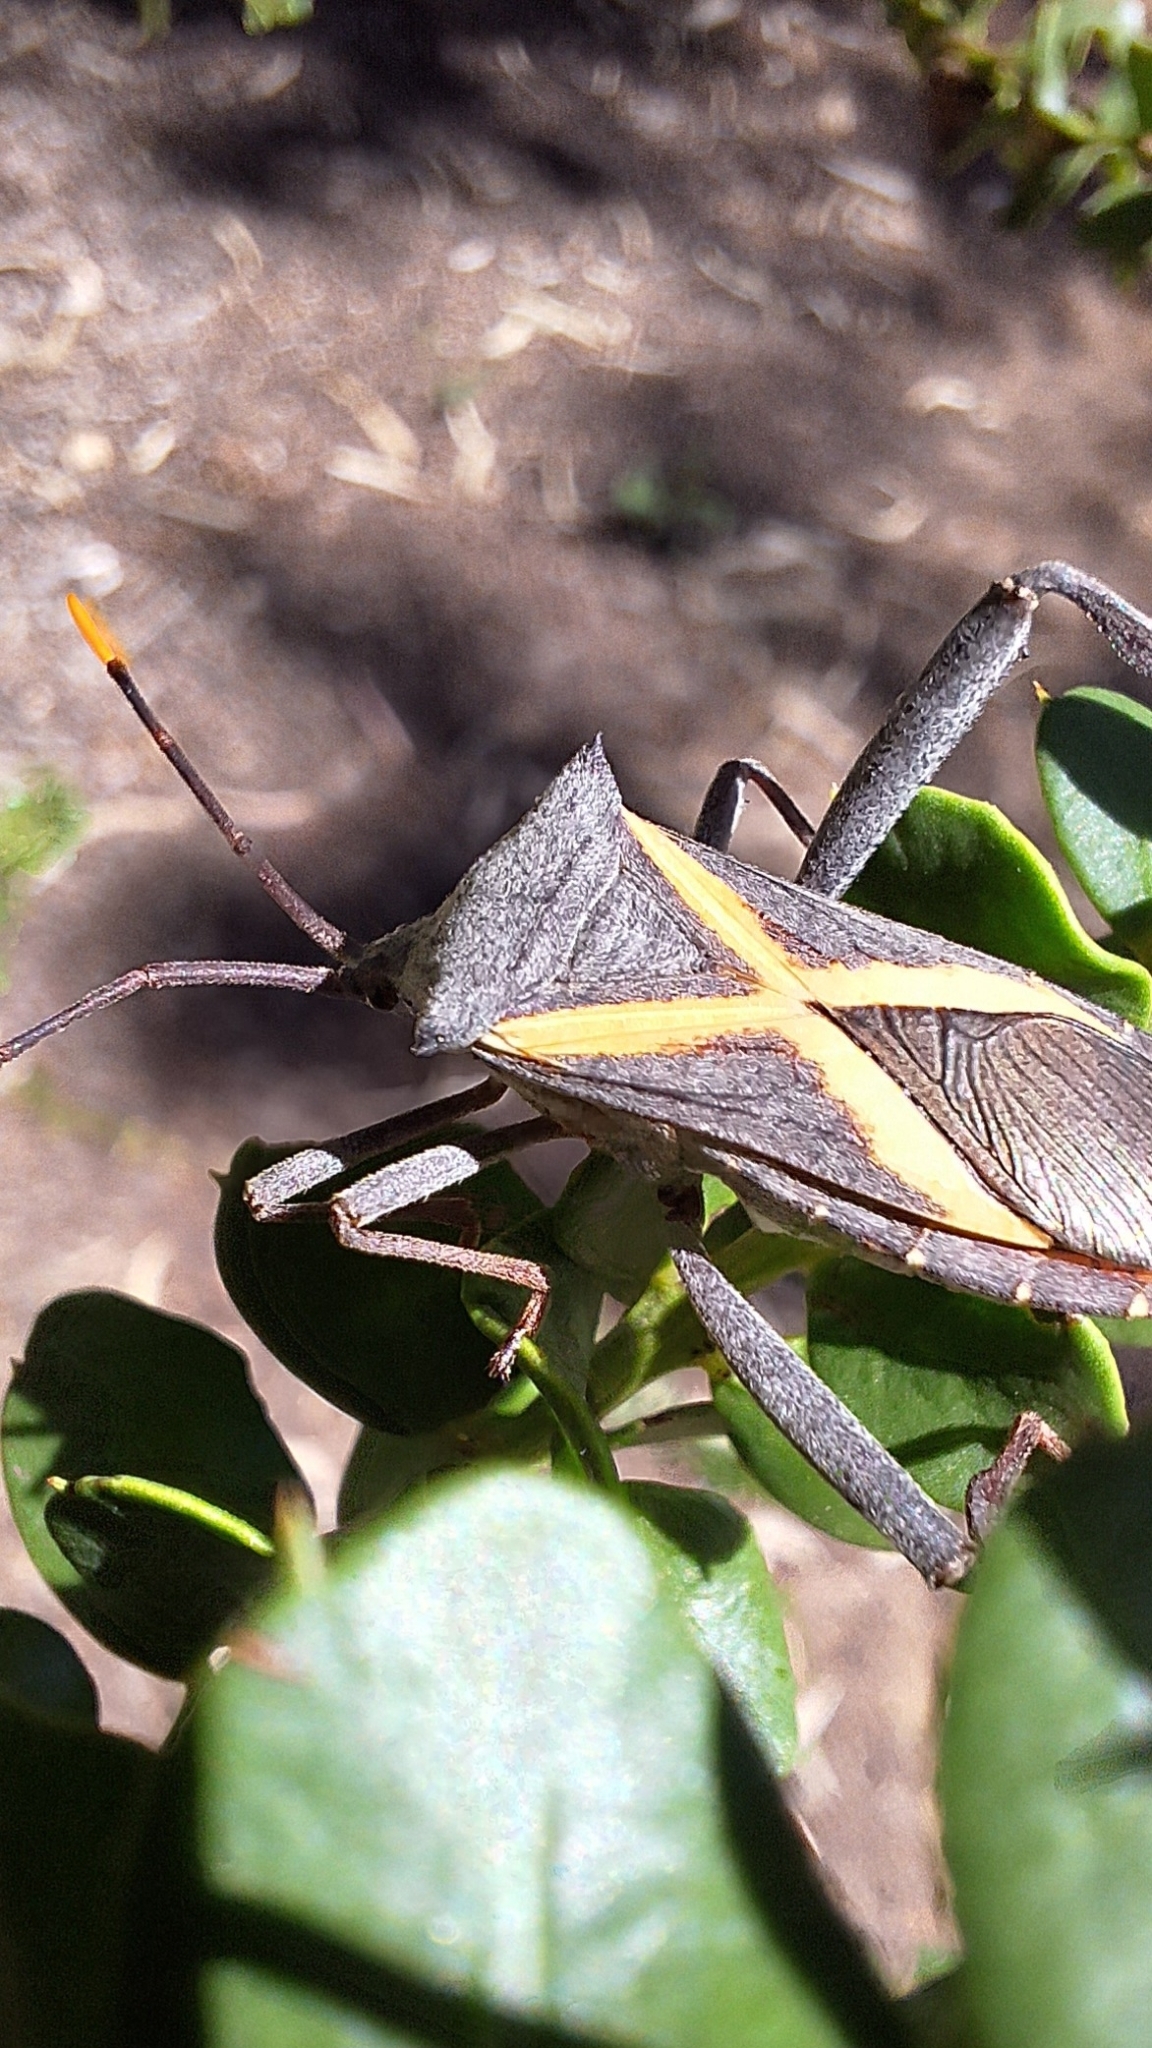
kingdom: Animalia
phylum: Arthropoda
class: Insecta
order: Hemiptera
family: Coreidae
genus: Mictis
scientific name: Mictis profana
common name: Crusader bug
